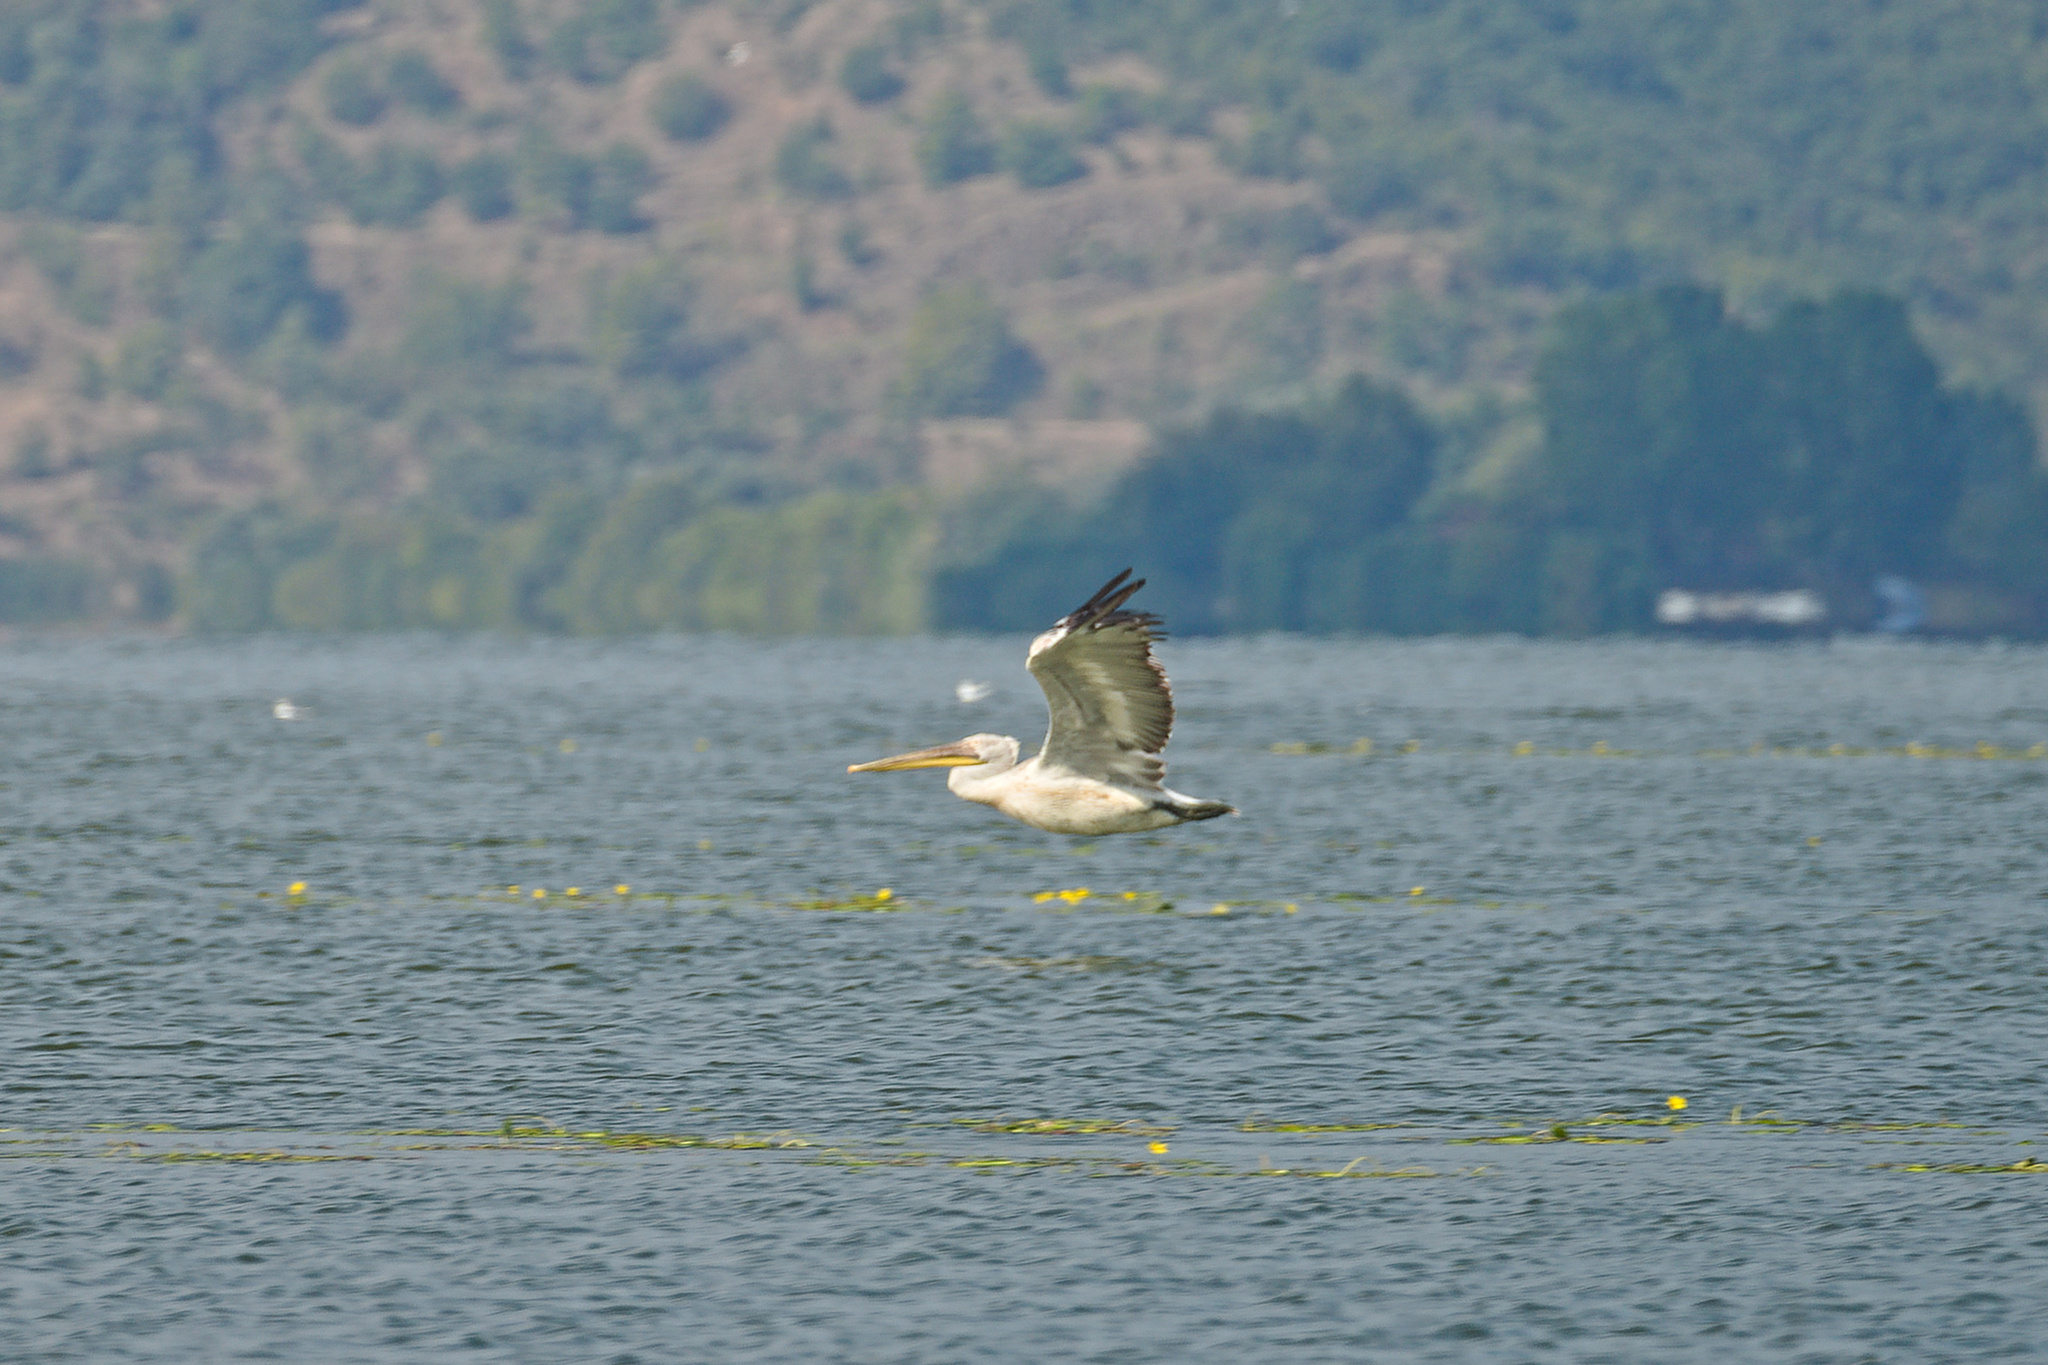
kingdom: Animalia
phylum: Chordata
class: Aves
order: Pelecaniformes
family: Pelecanidae
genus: Pelecanus
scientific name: Pelecanus crispus
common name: Dalmatian pelican
